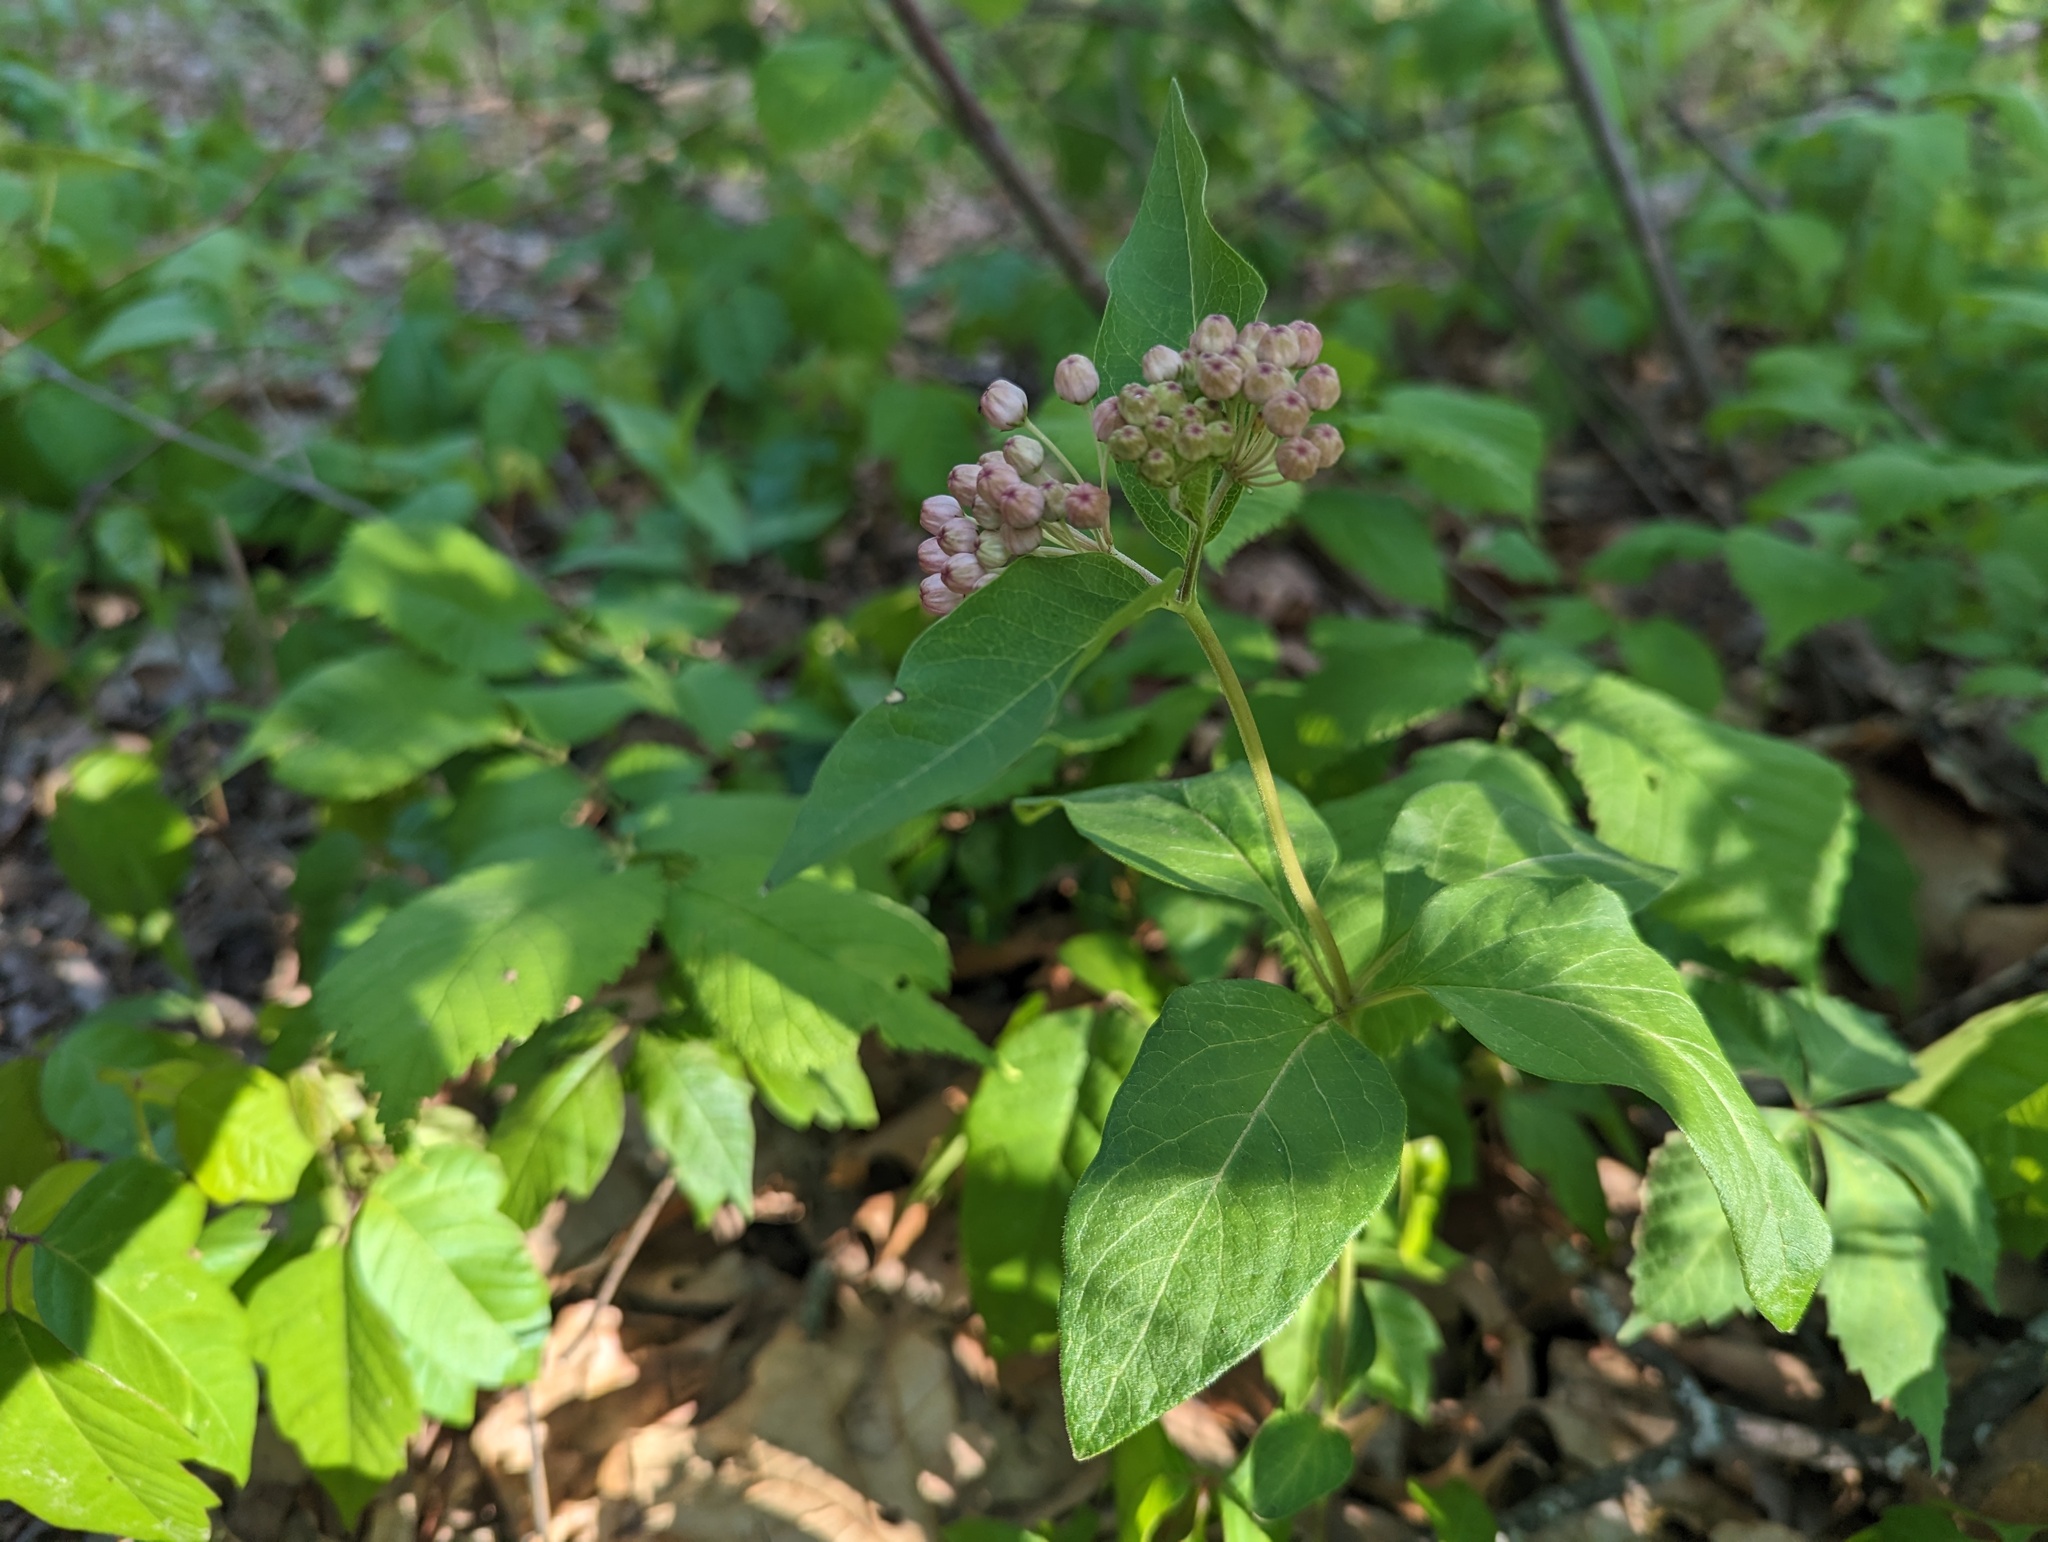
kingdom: Plantae
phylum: Tracheophyta
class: Magnoliopsida
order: Gentianales
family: Apocynaceae
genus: Asclepias
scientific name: Asclepias quadrifolia
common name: Whorled milkweed
